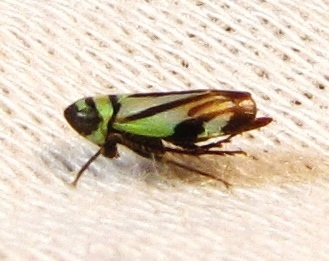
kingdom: Animalia
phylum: Arthropoda
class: Insecta
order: Hemiptera
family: Cicadellidae
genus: Stirellus
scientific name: Stirellus bicolor
